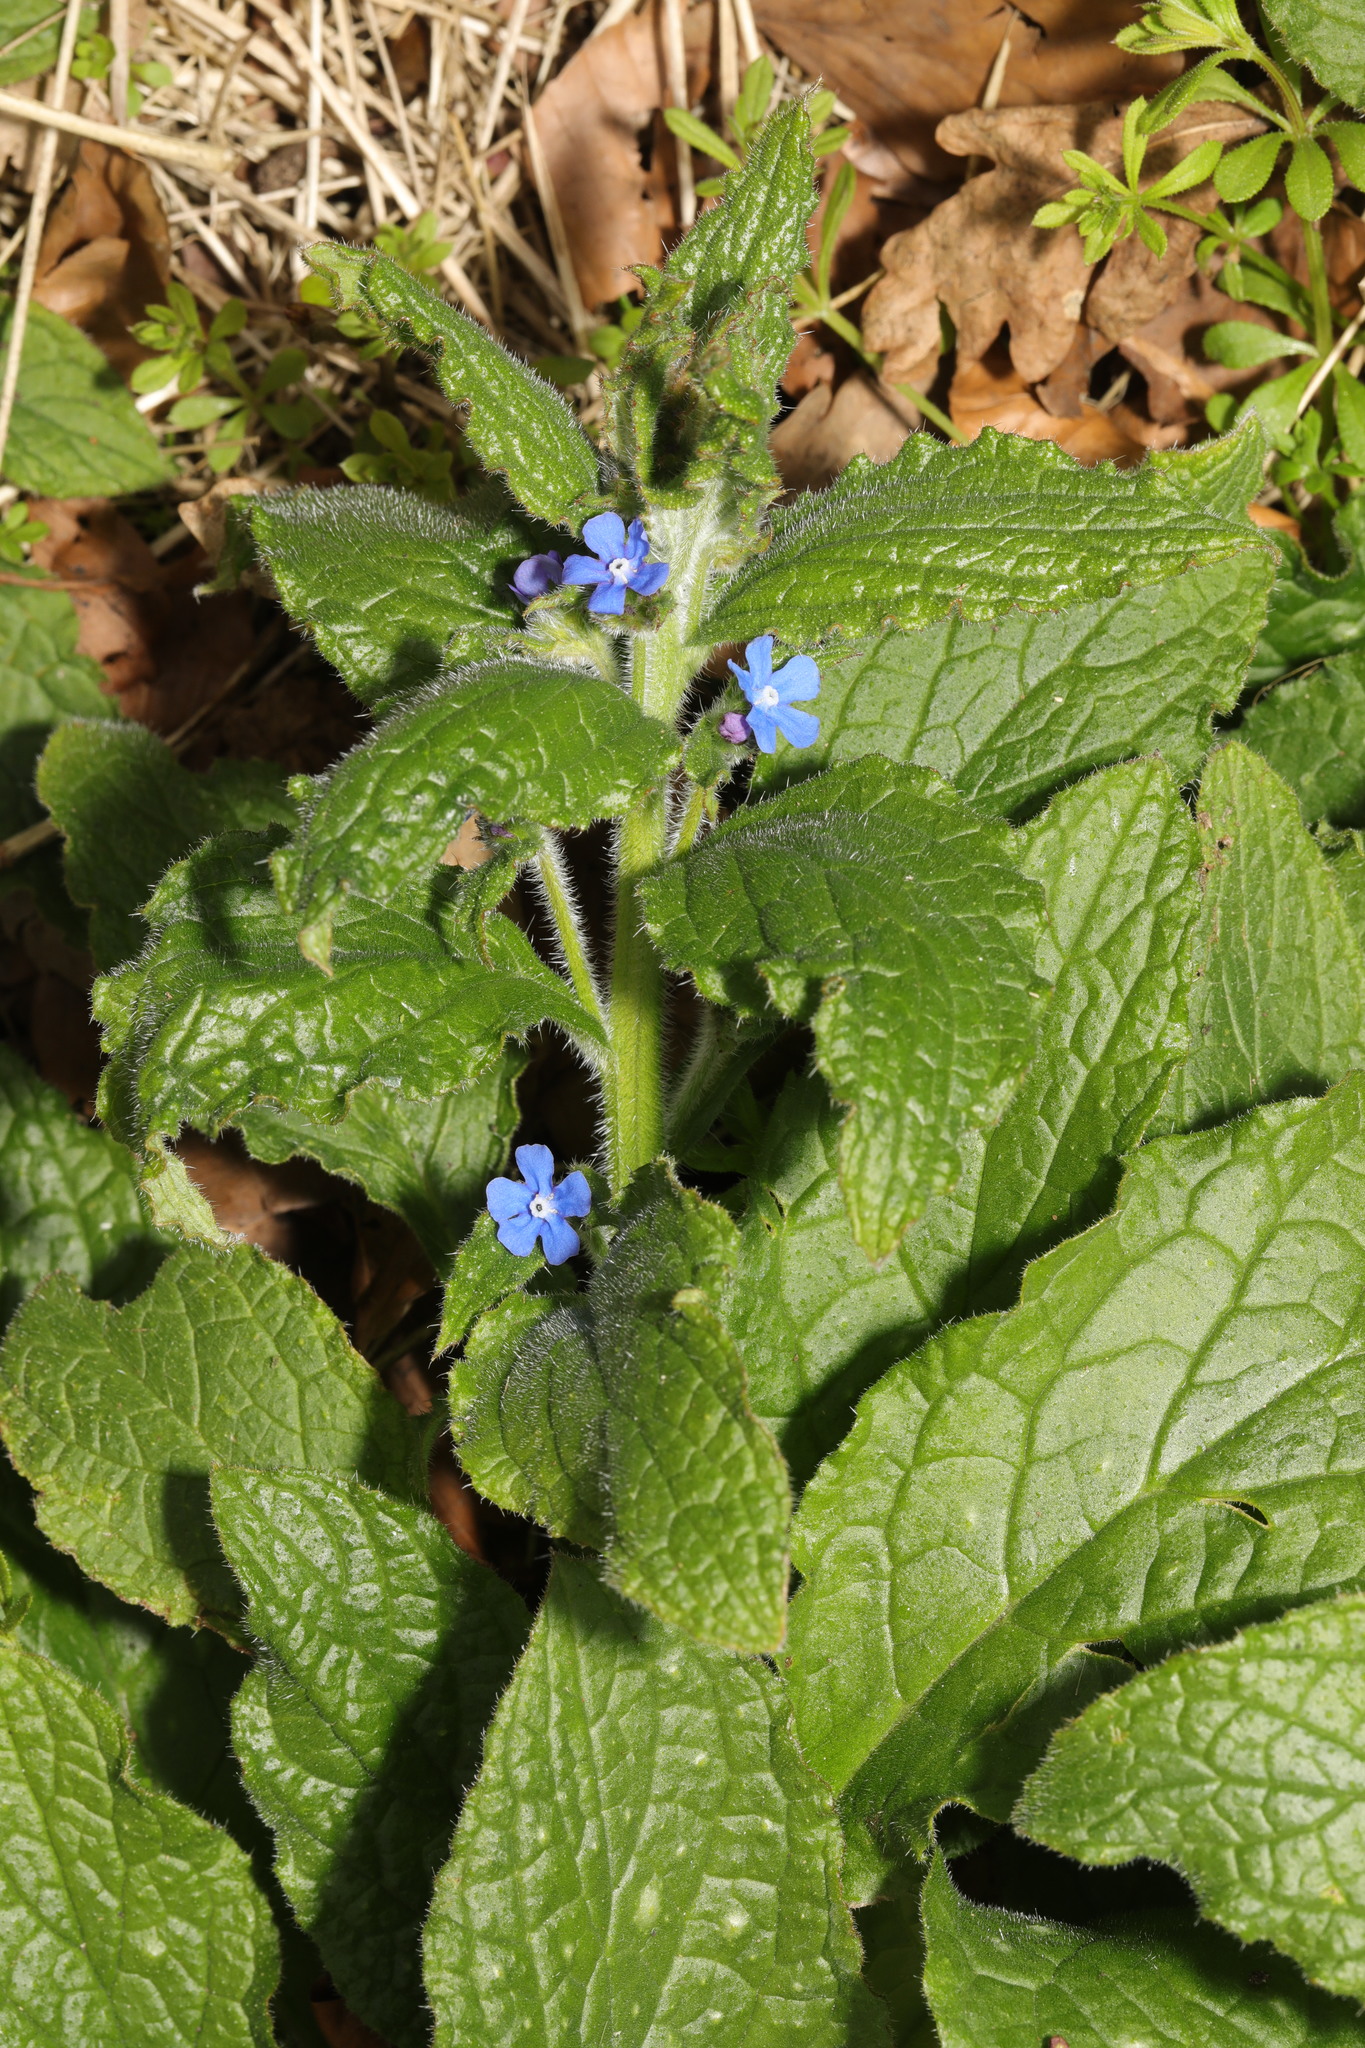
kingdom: Plantae
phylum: Tracheophyta
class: Magnoliopsida
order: Boraginales
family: Boraginaceae
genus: Pentaglottis
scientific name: Pentaglottis sempervirens
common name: Green alkanet
